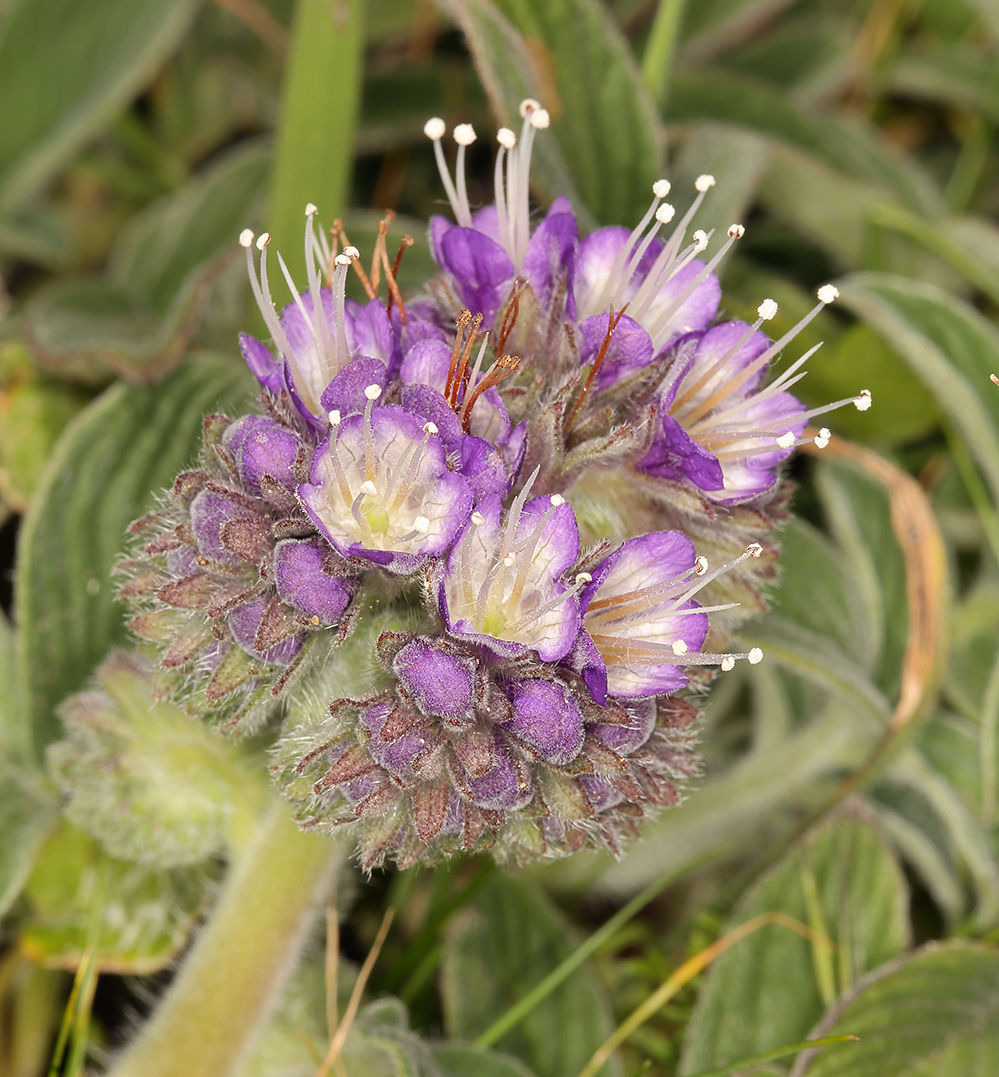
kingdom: Plantae
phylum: Tracheophyta
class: Magnoliopsida
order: Boraginales
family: Hydrophyllaceae
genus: Phacelia
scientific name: Phacelia californica
